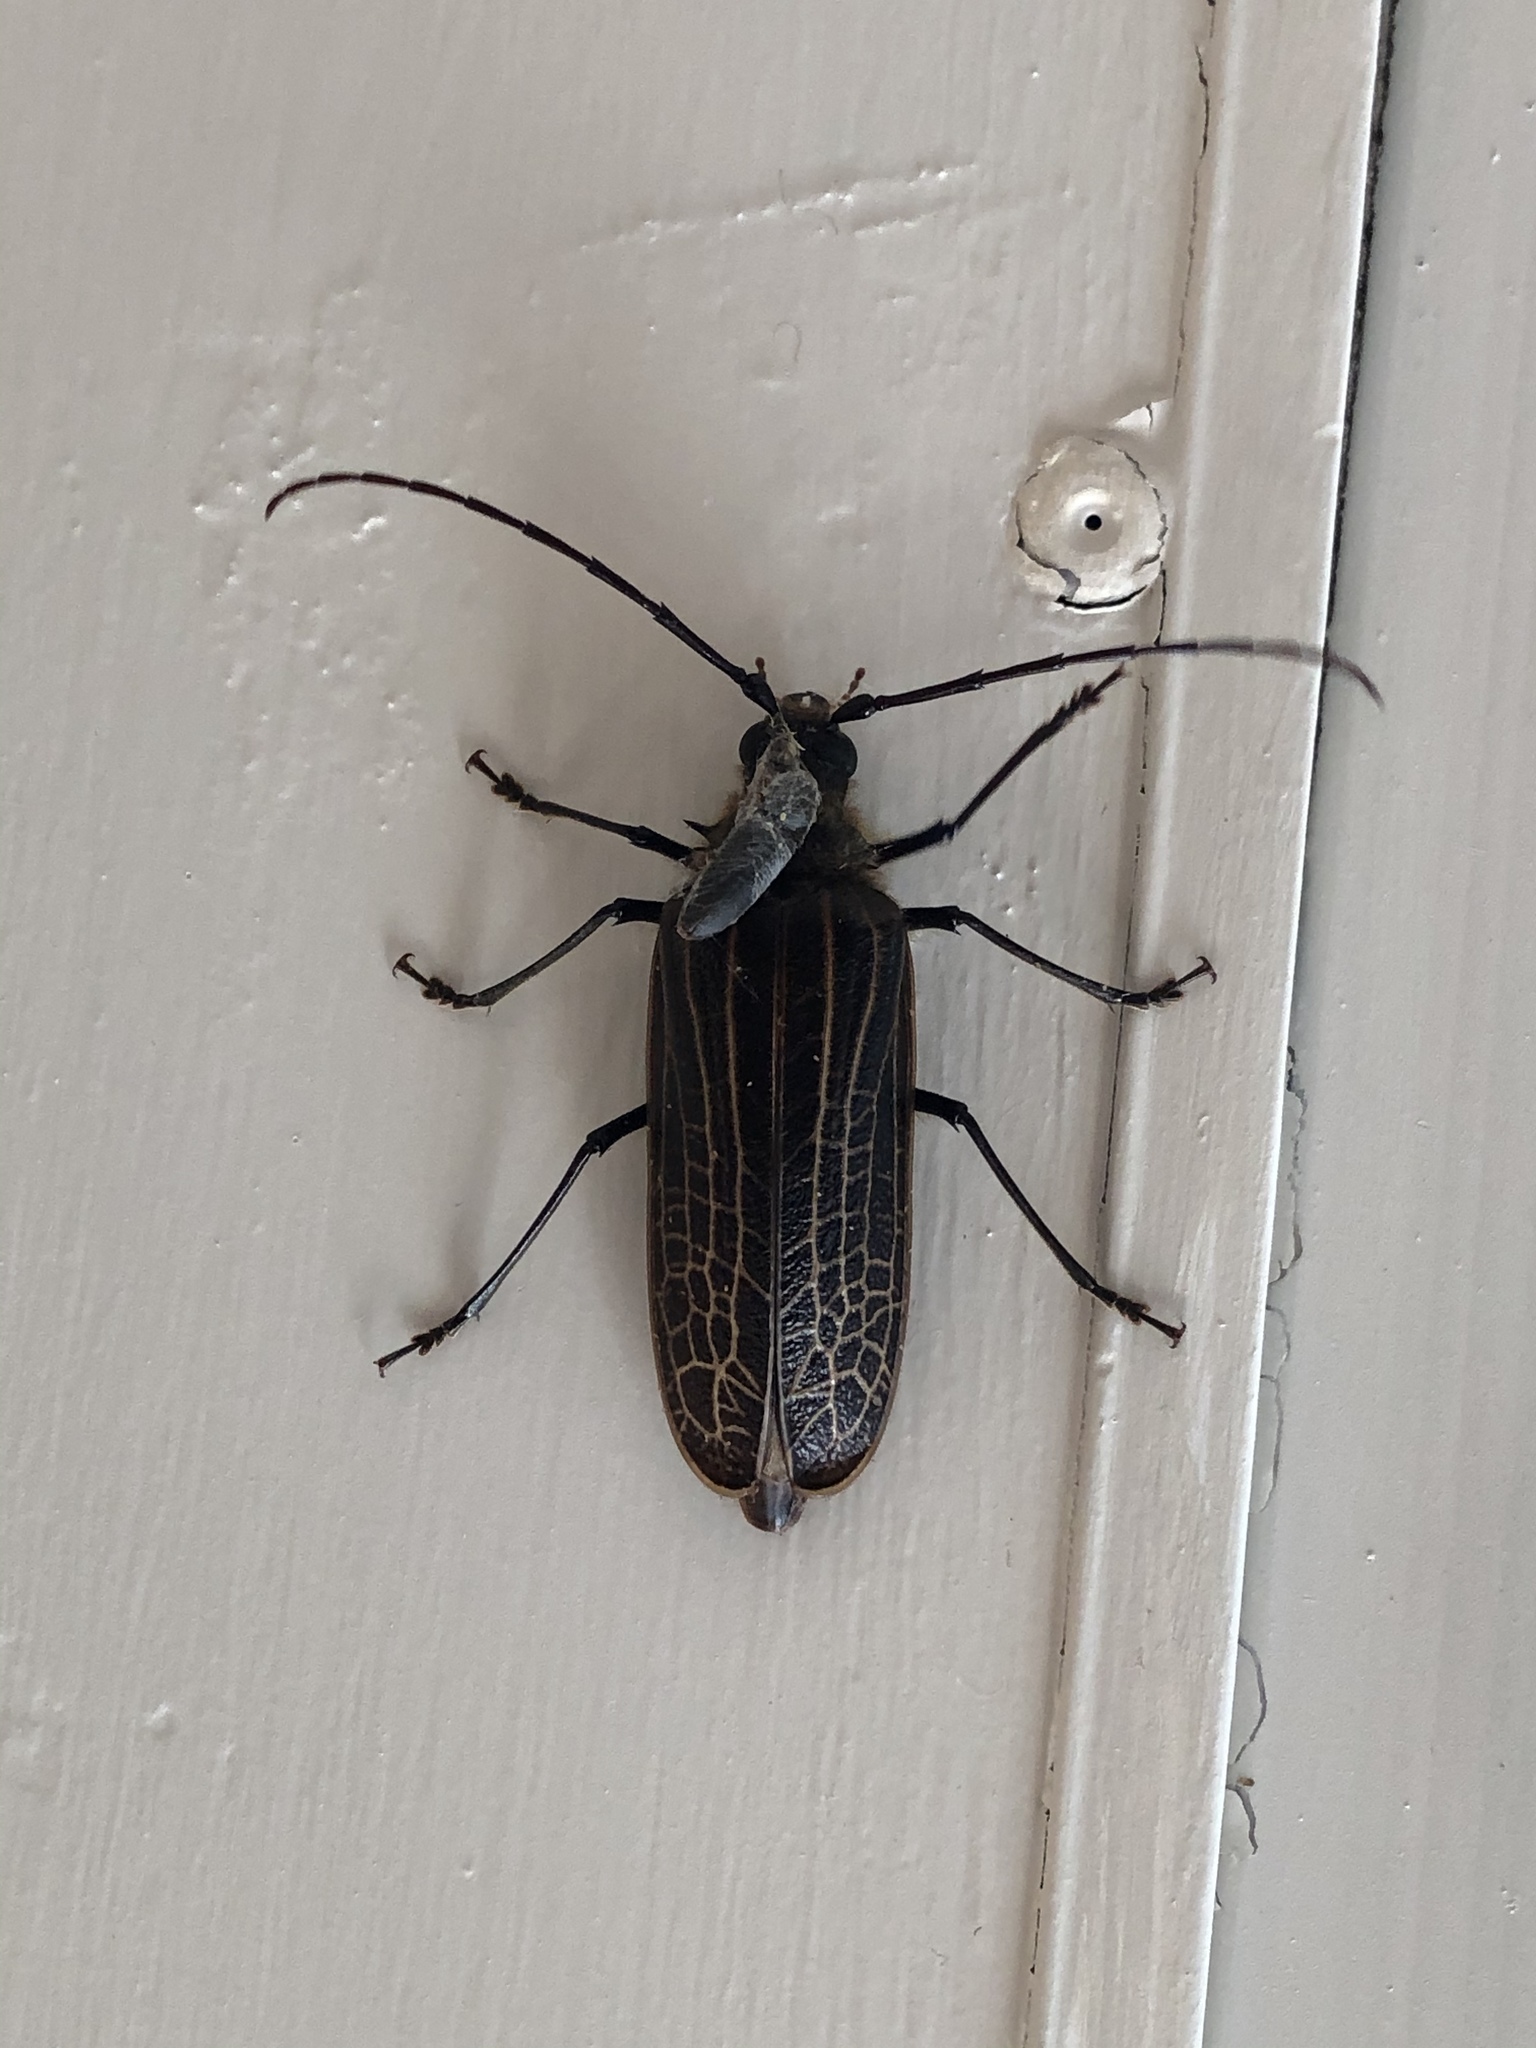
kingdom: Animalia
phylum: Arthropoda
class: Insecta
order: Coleoptera
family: Cerambycidae
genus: Prionoplus
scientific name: Prionoplus reticularis
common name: Huhu beetle
